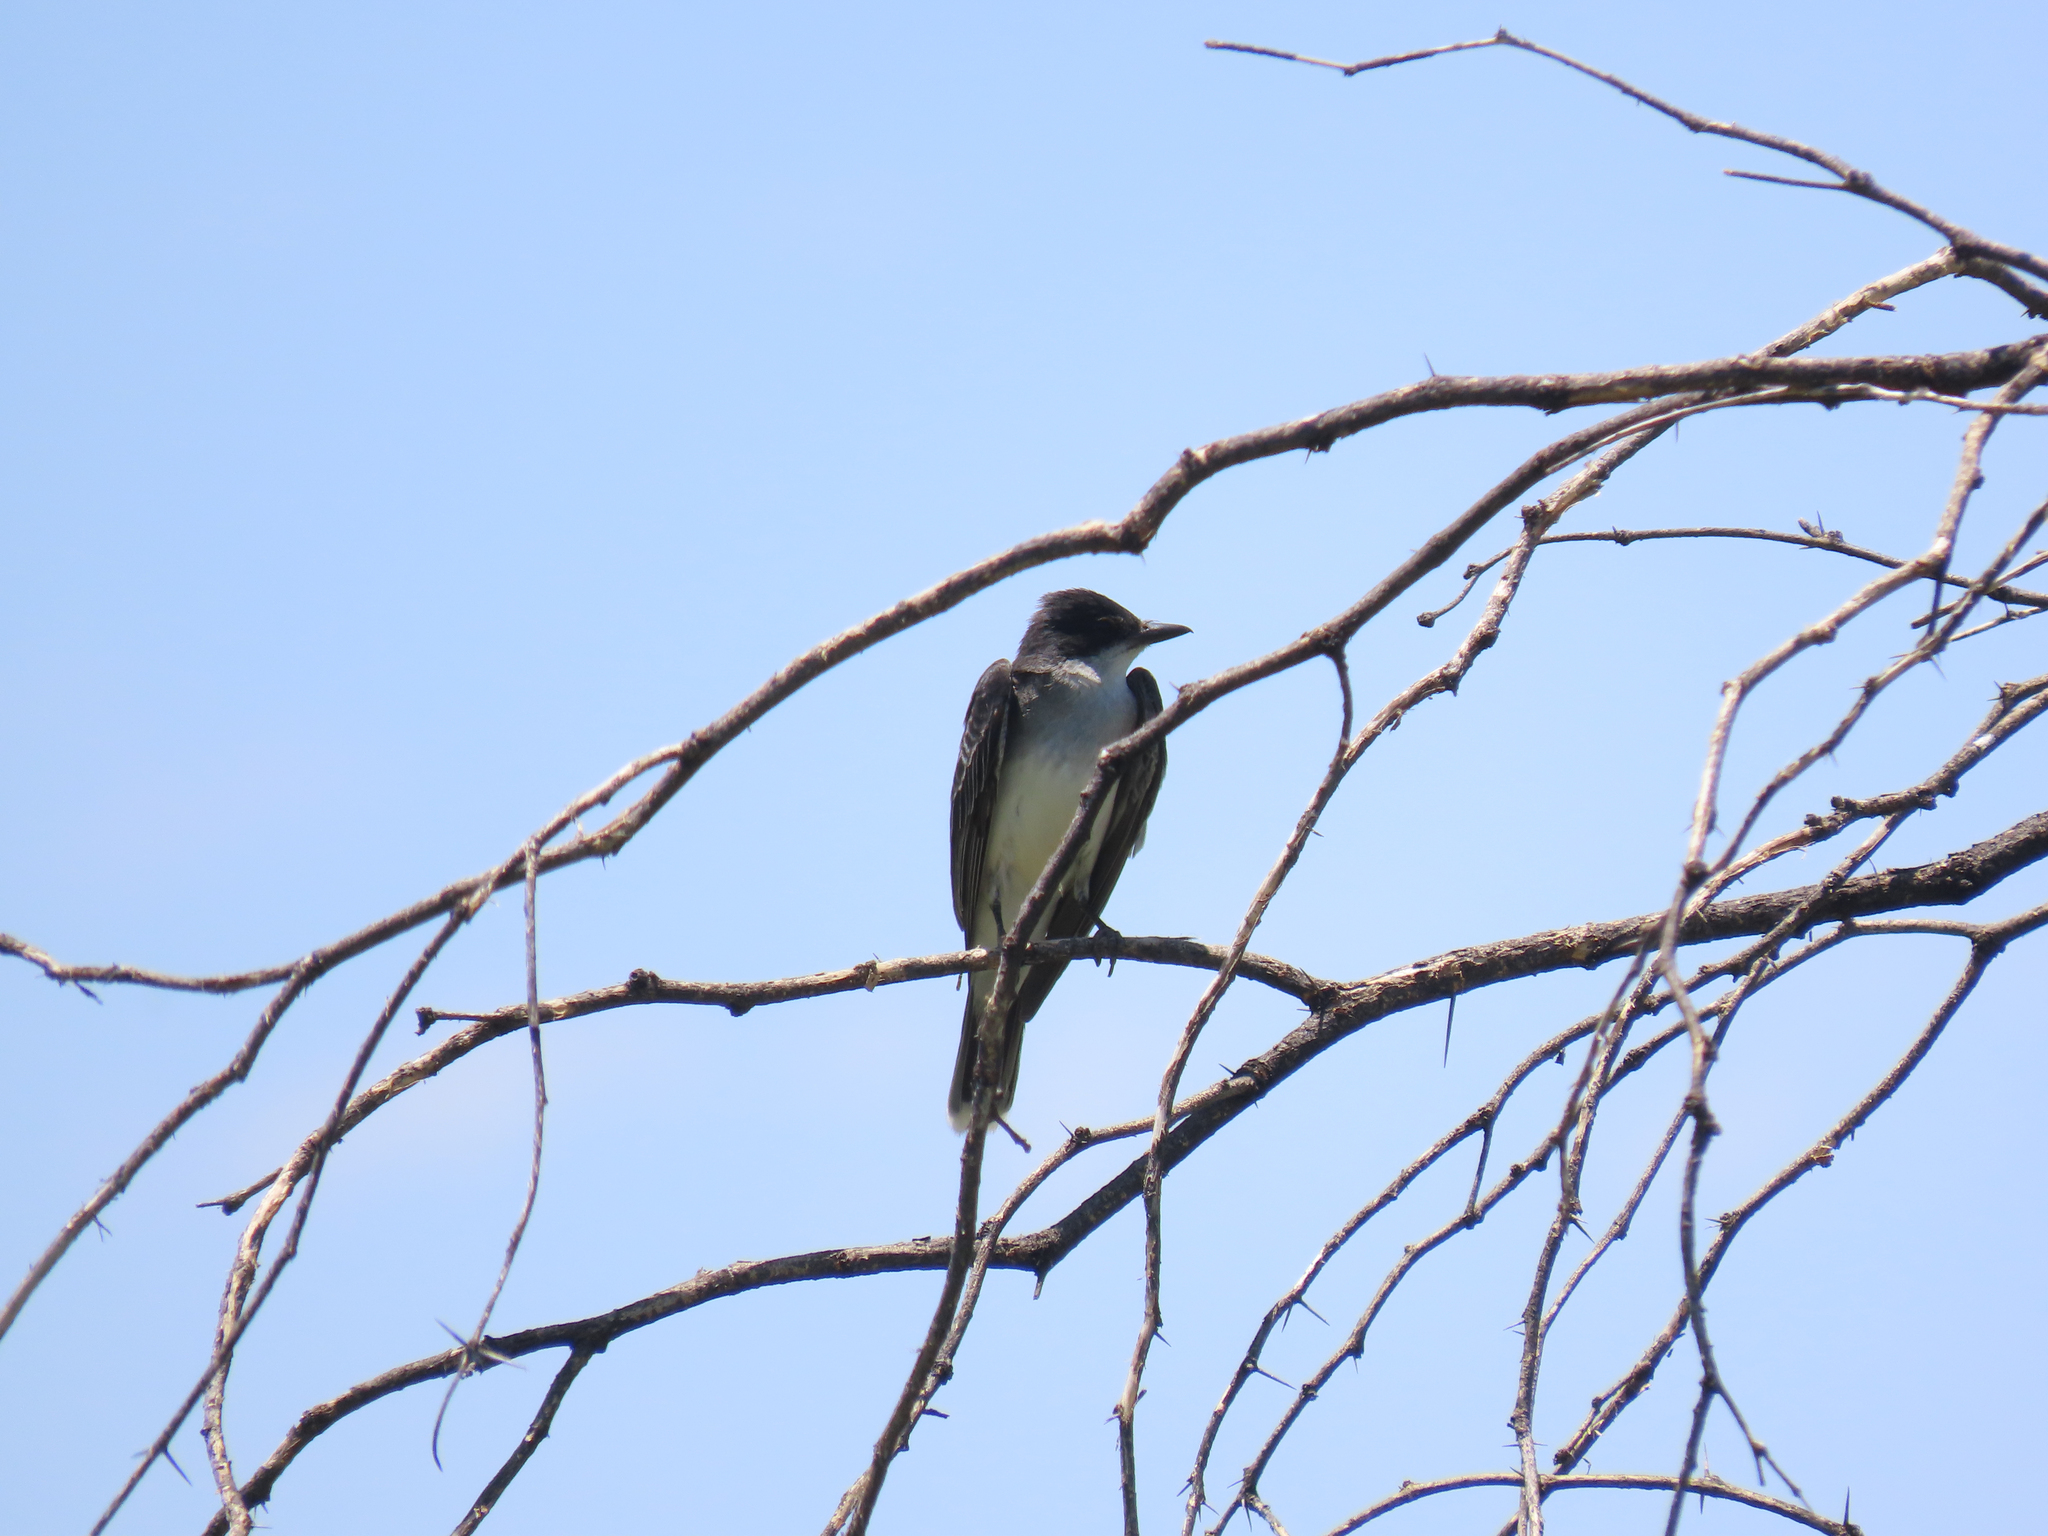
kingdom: Animalia
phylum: Chordata
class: Aves
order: Passeriformes
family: Tyrannidae
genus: Tyrannus
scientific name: Tyrannus tyrannus
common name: Eastern kingbird
